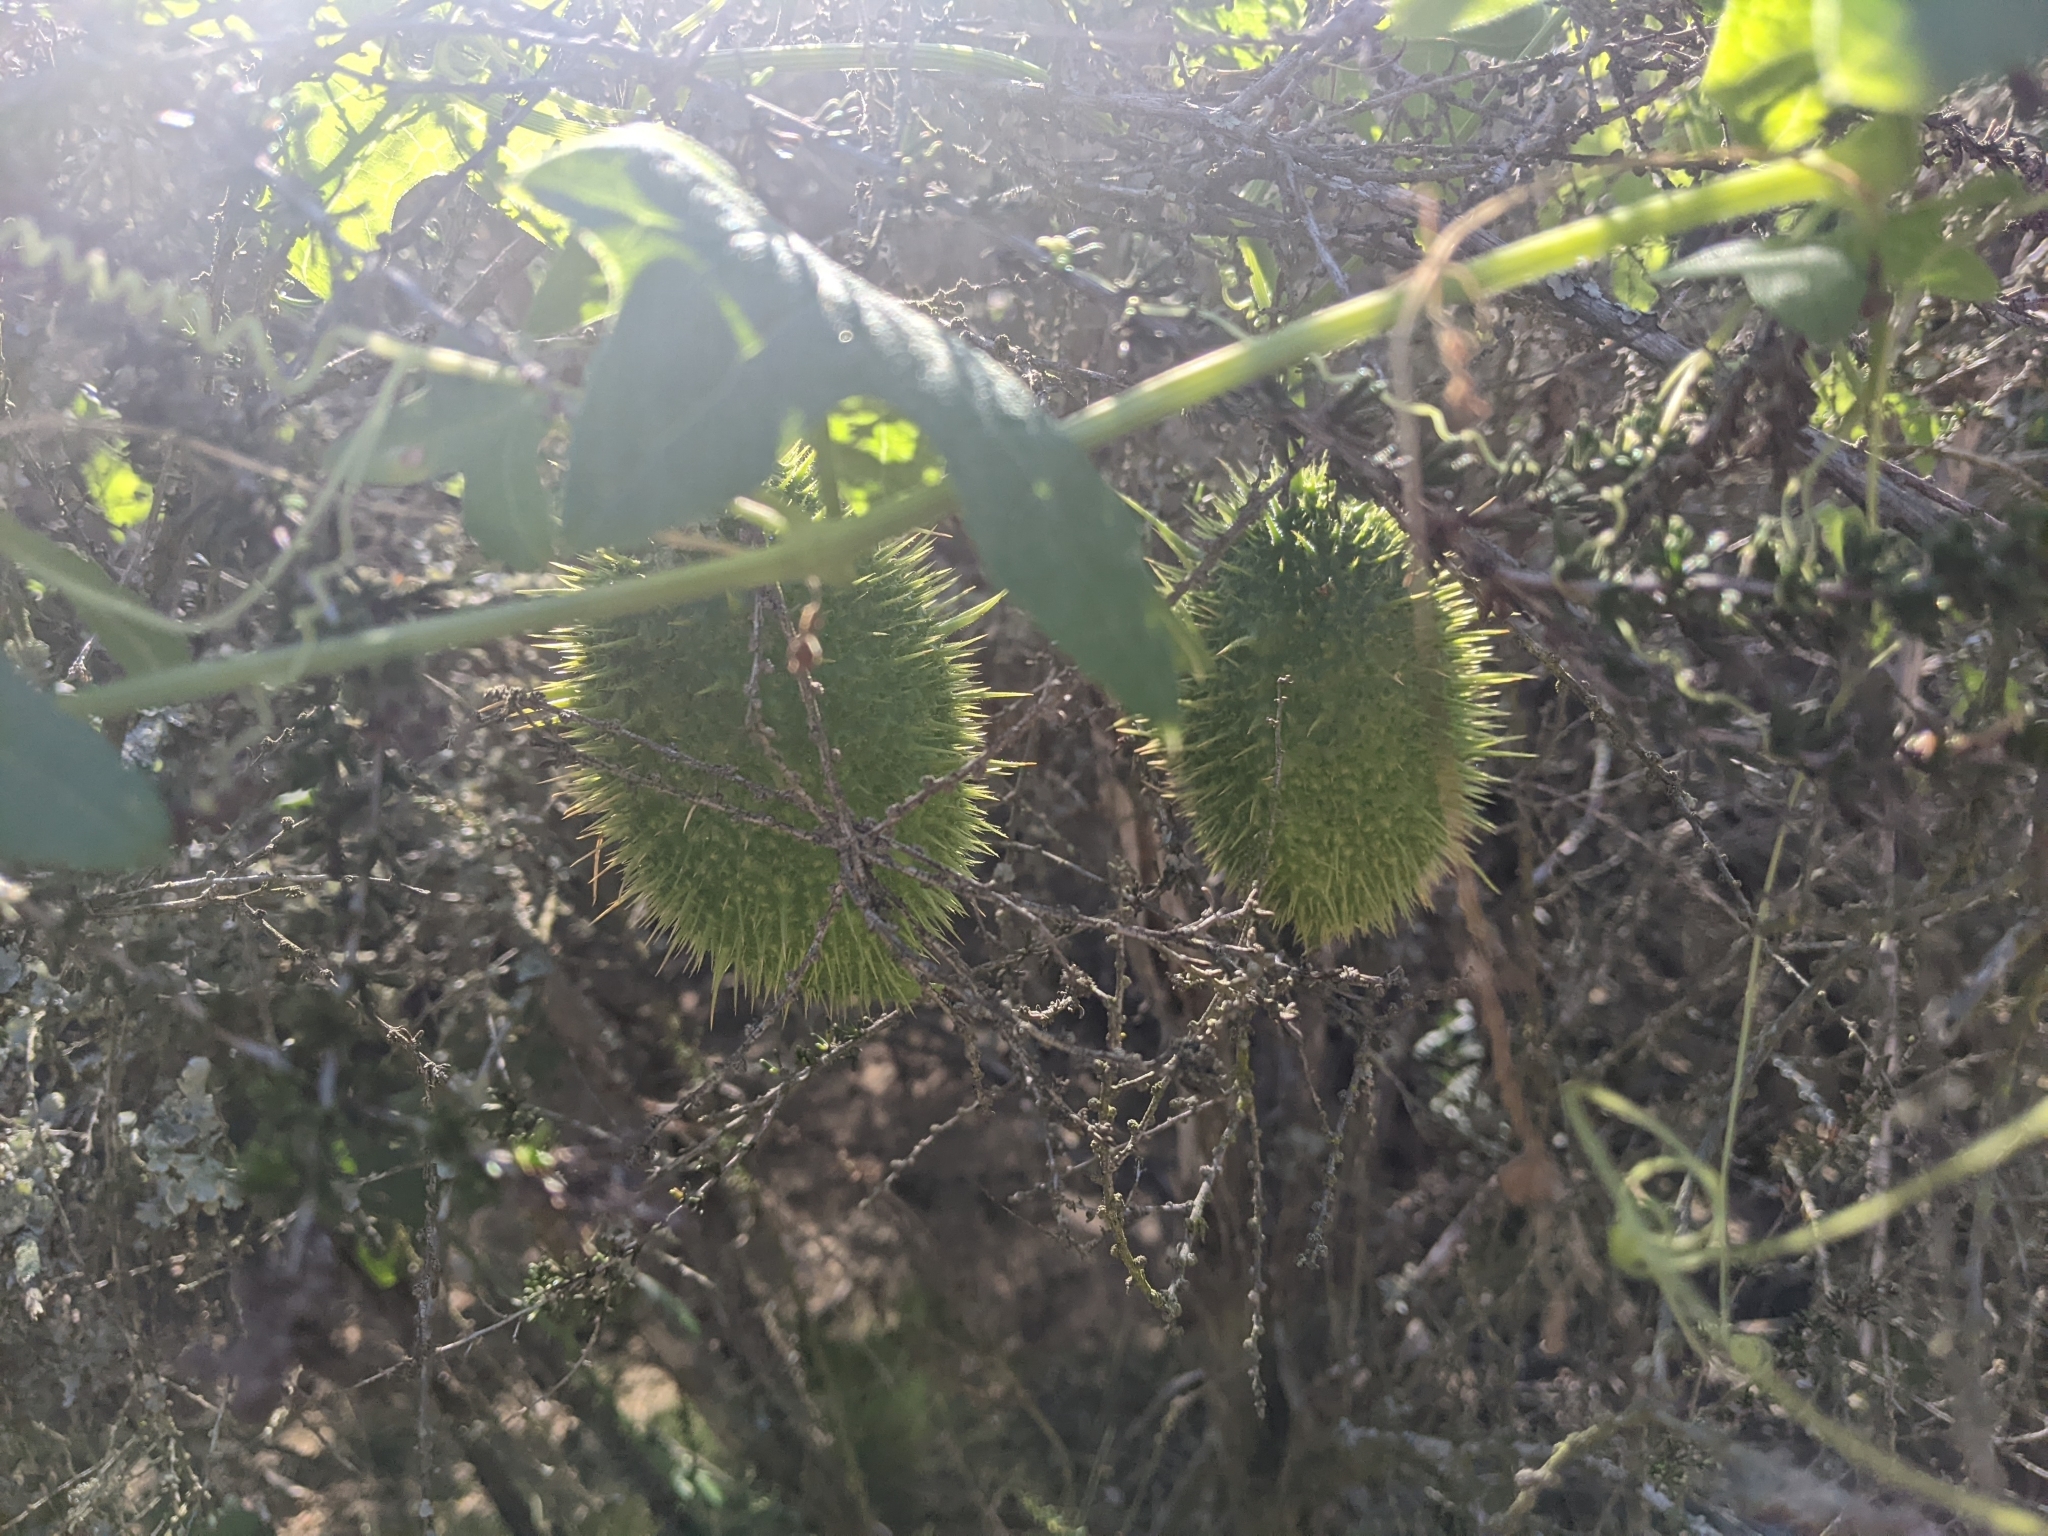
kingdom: Plantae
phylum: Tracheophyta
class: Magnoliopsida
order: Cucurbitales
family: Cucurbitaceae
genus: Marah
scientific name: Marah macrocarpa
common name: Cucamonga manroot
